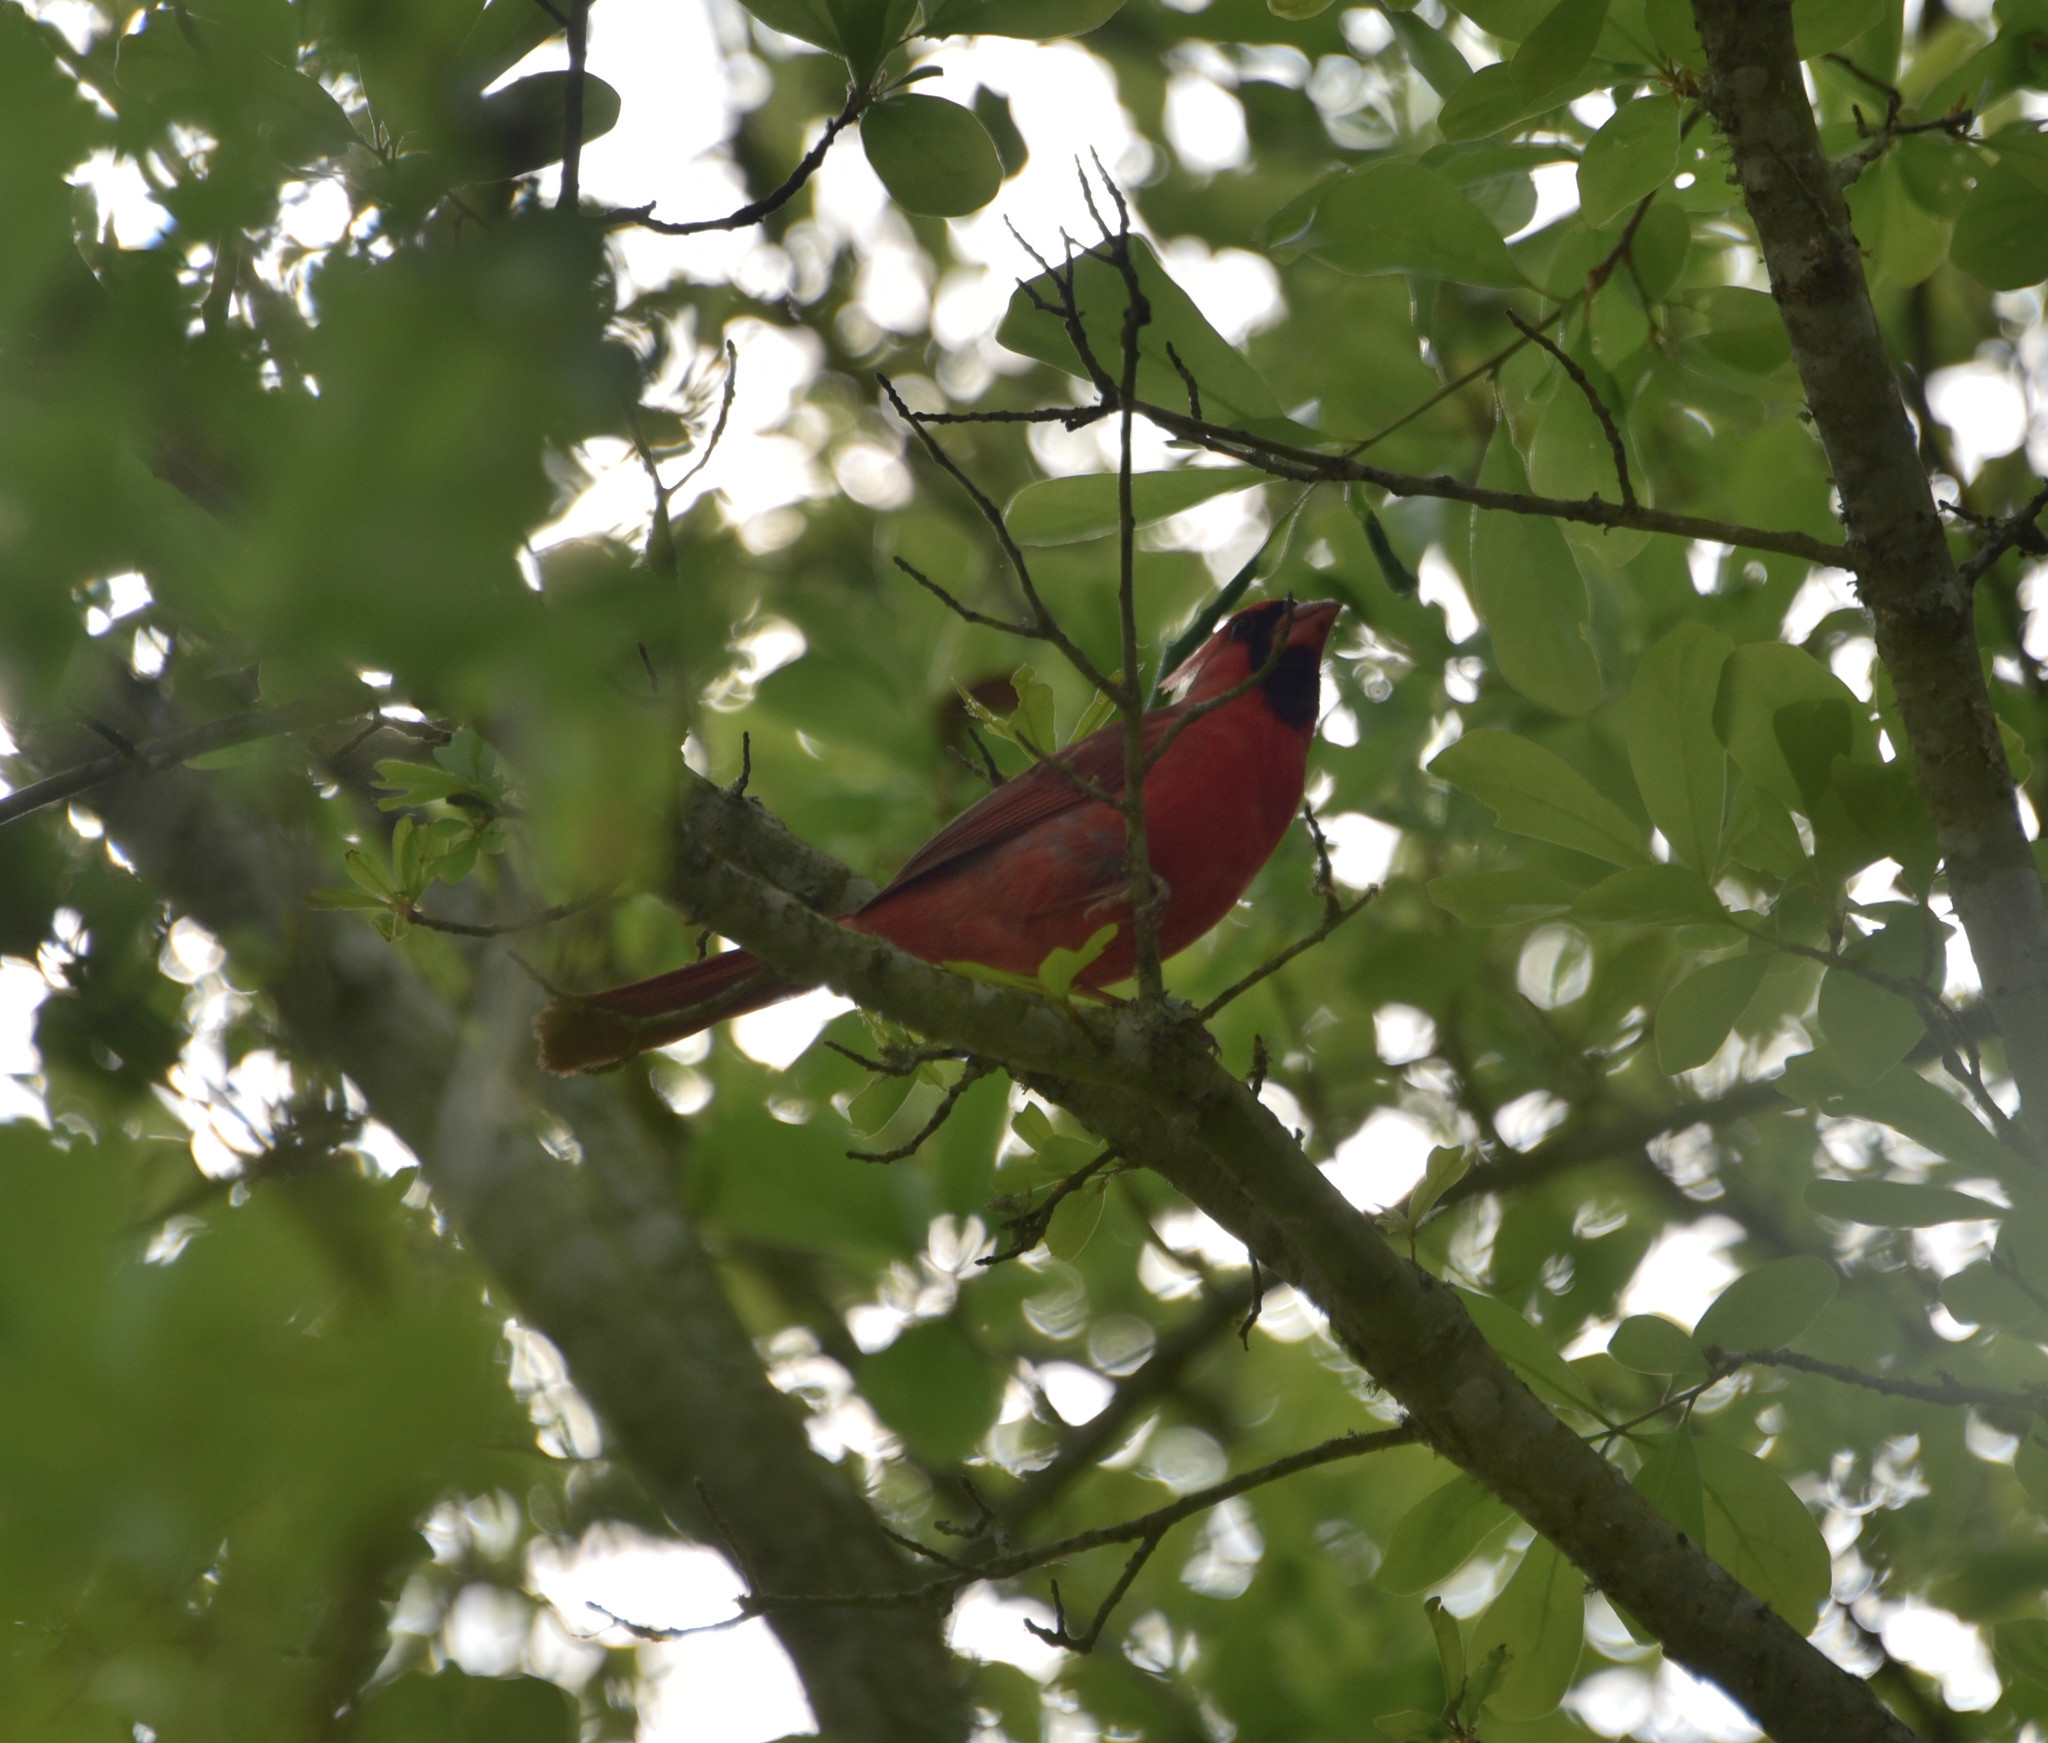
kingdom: Animalia
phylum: Chordata
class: Aves
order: Passeriformes
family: Cardinalidae
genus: Cardinalis
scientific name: Cardinalis cardinalis
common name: Northern cardinal
